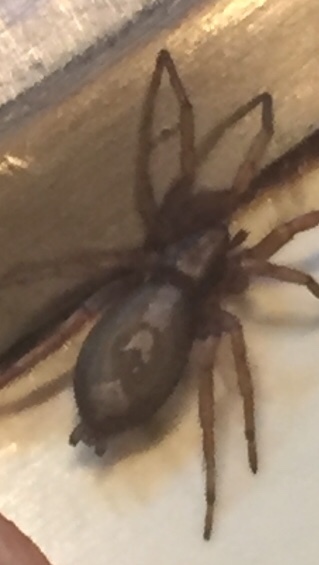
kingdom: Animalia
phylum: Arthropoda
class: Arachnida
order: Araneae
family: Gnaphosidae
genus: Herpyllus
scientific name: Herpyllus ecclesiasticus
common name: Eastern parson spider
